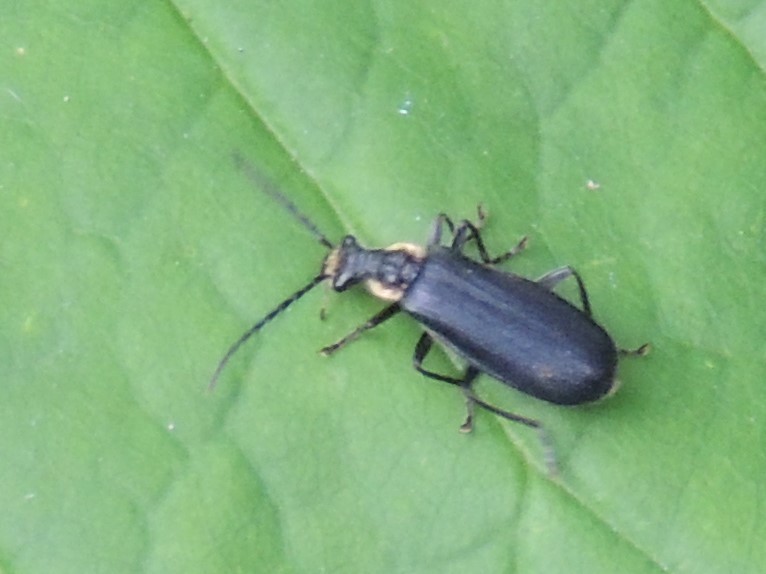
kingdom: Animalia
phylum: Arthropoda
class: Insecta
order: Coleoptera
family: Cantharidae
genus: Podabrus
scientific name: Podabrus rugosulus
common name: Wrinkled soldier beetle
